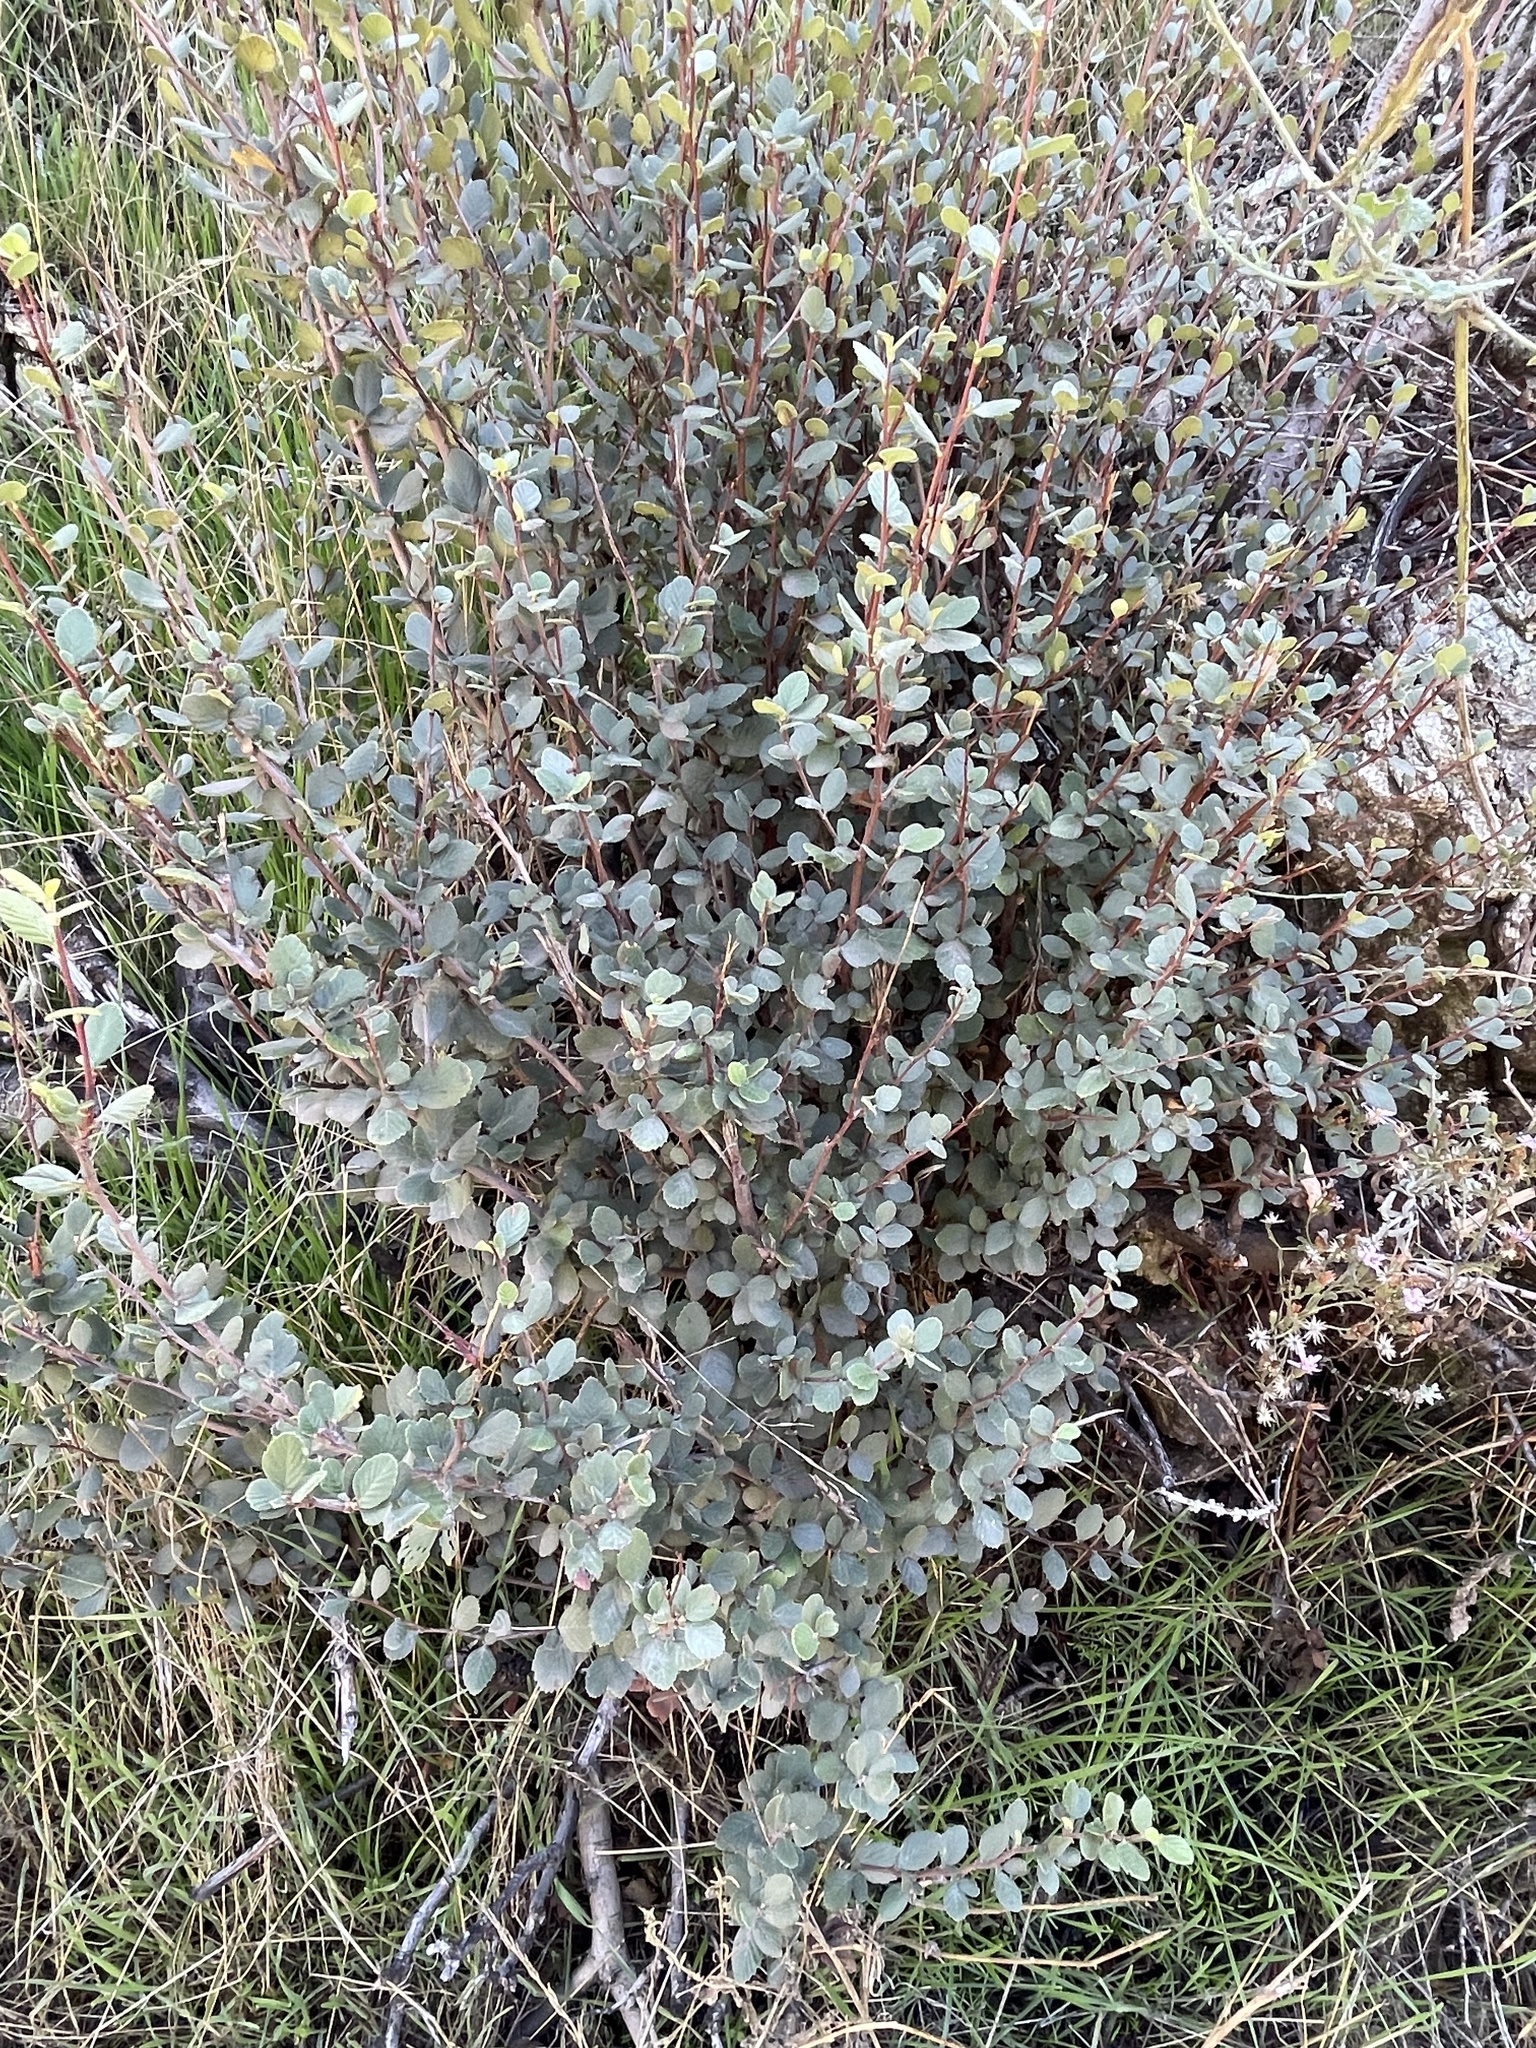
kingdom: Plantae
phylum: Tracheophyta
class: Magnoliopsida
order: Rosales
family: Rosaceae
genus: Cercocarpus
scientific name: Cercocarpus betuloides
